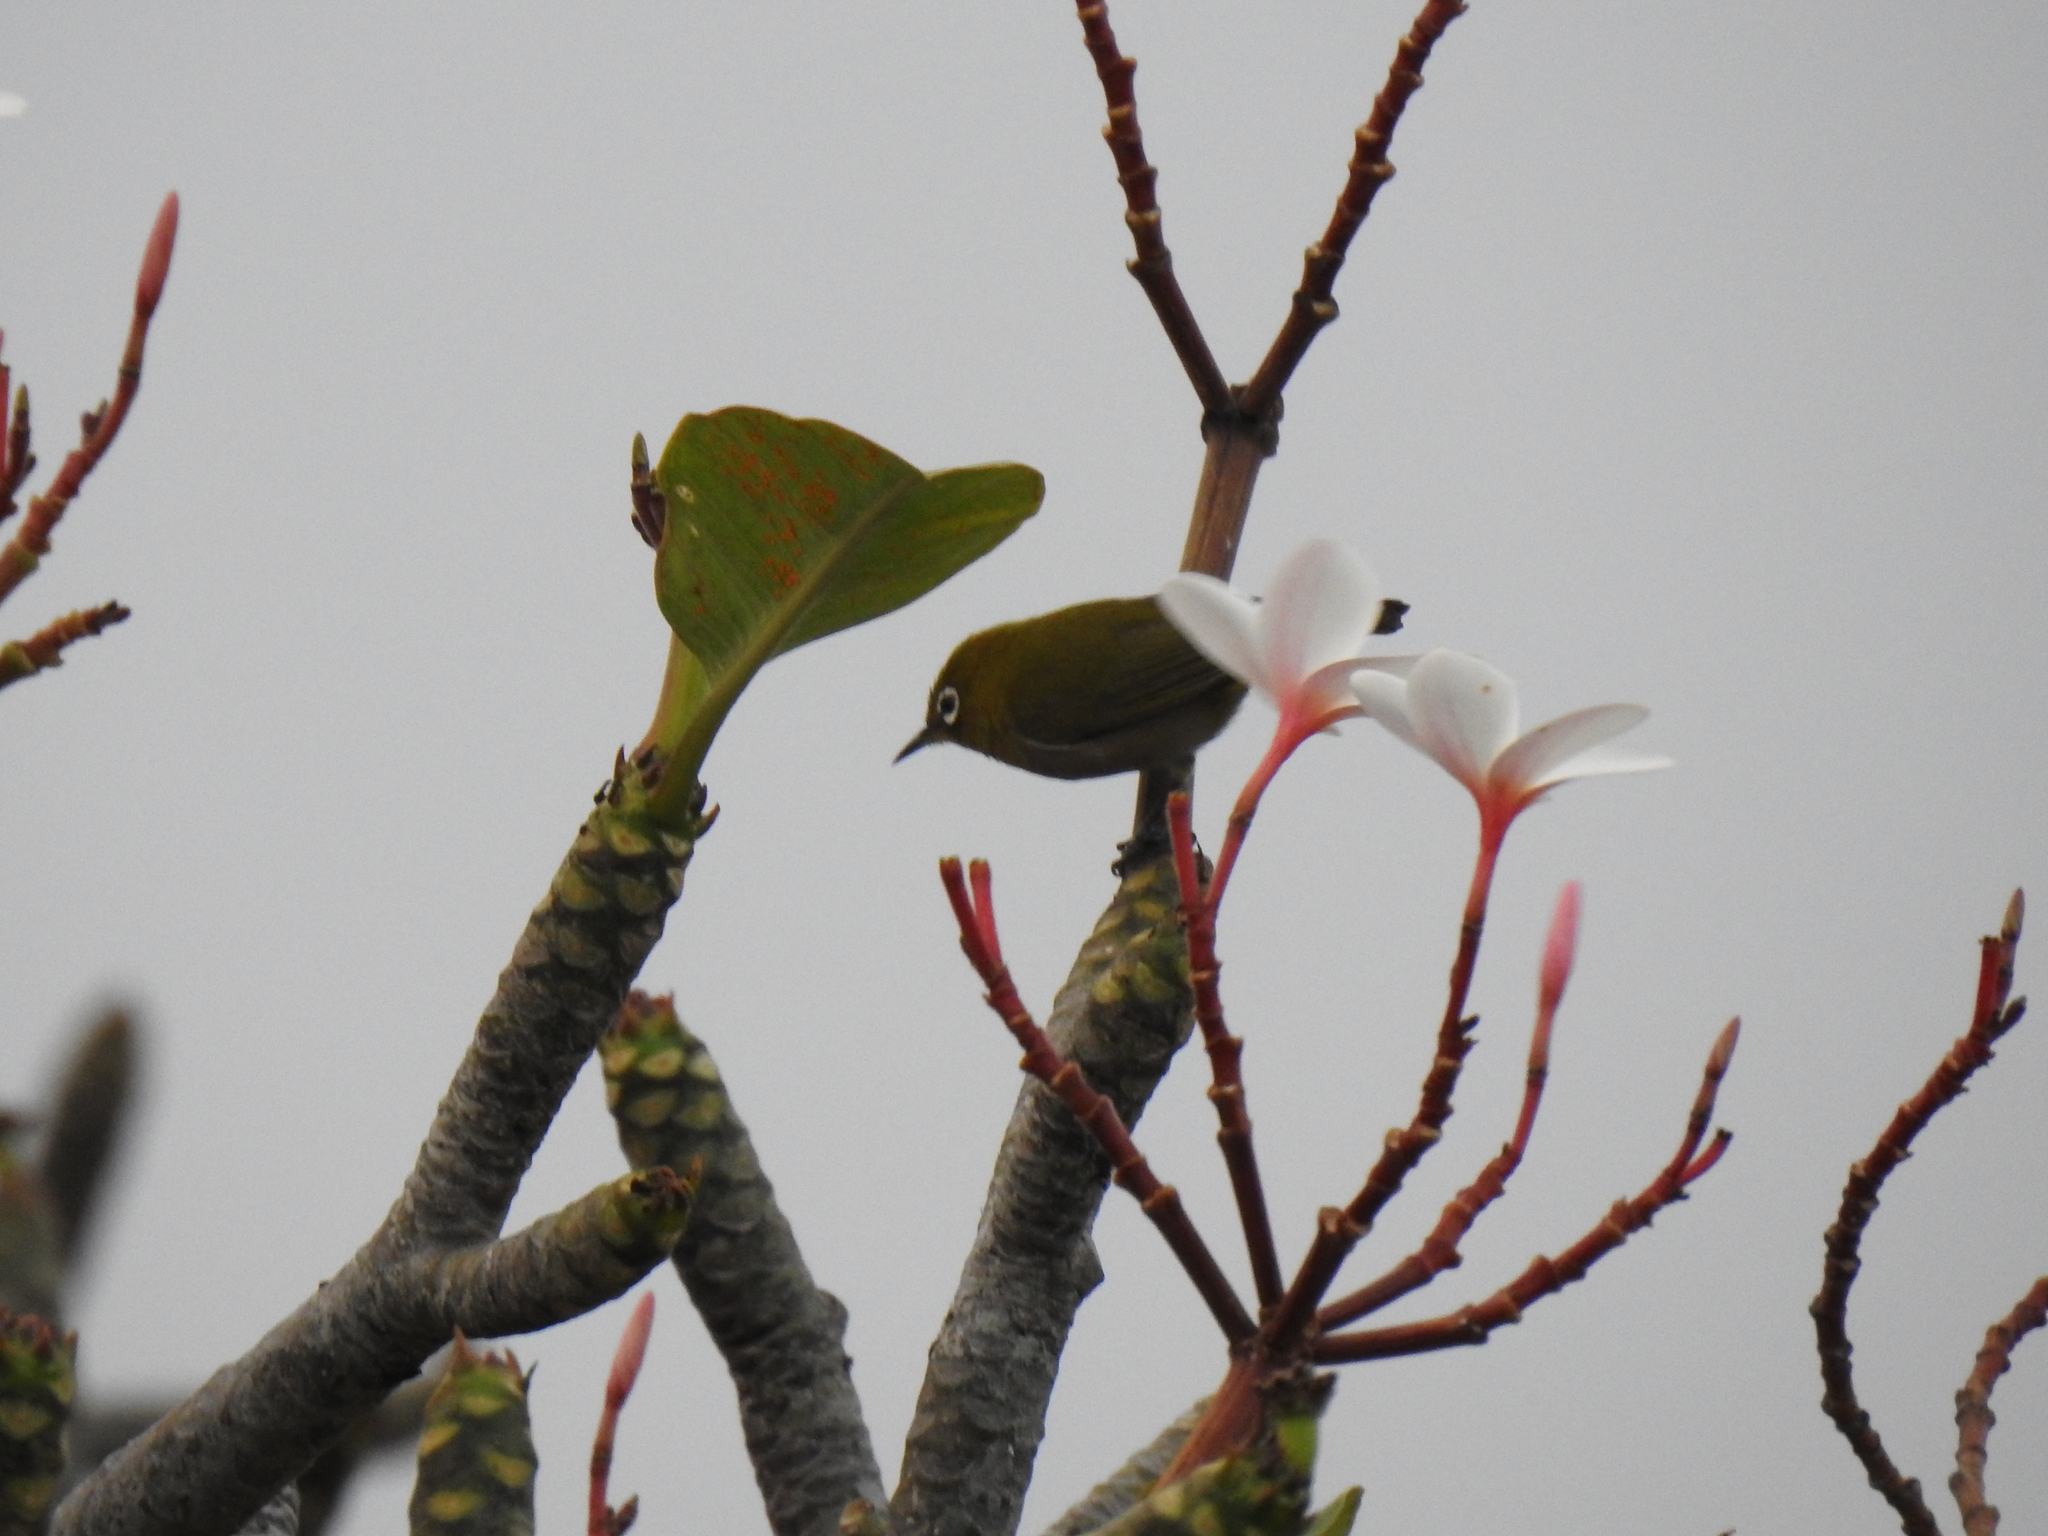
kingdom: Animalia
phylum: Chordata
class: Aves
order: Passeriformes
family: Zosteropidae
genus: Zosterops
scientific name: Zosterops japonicus
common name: Japanese white-eye
